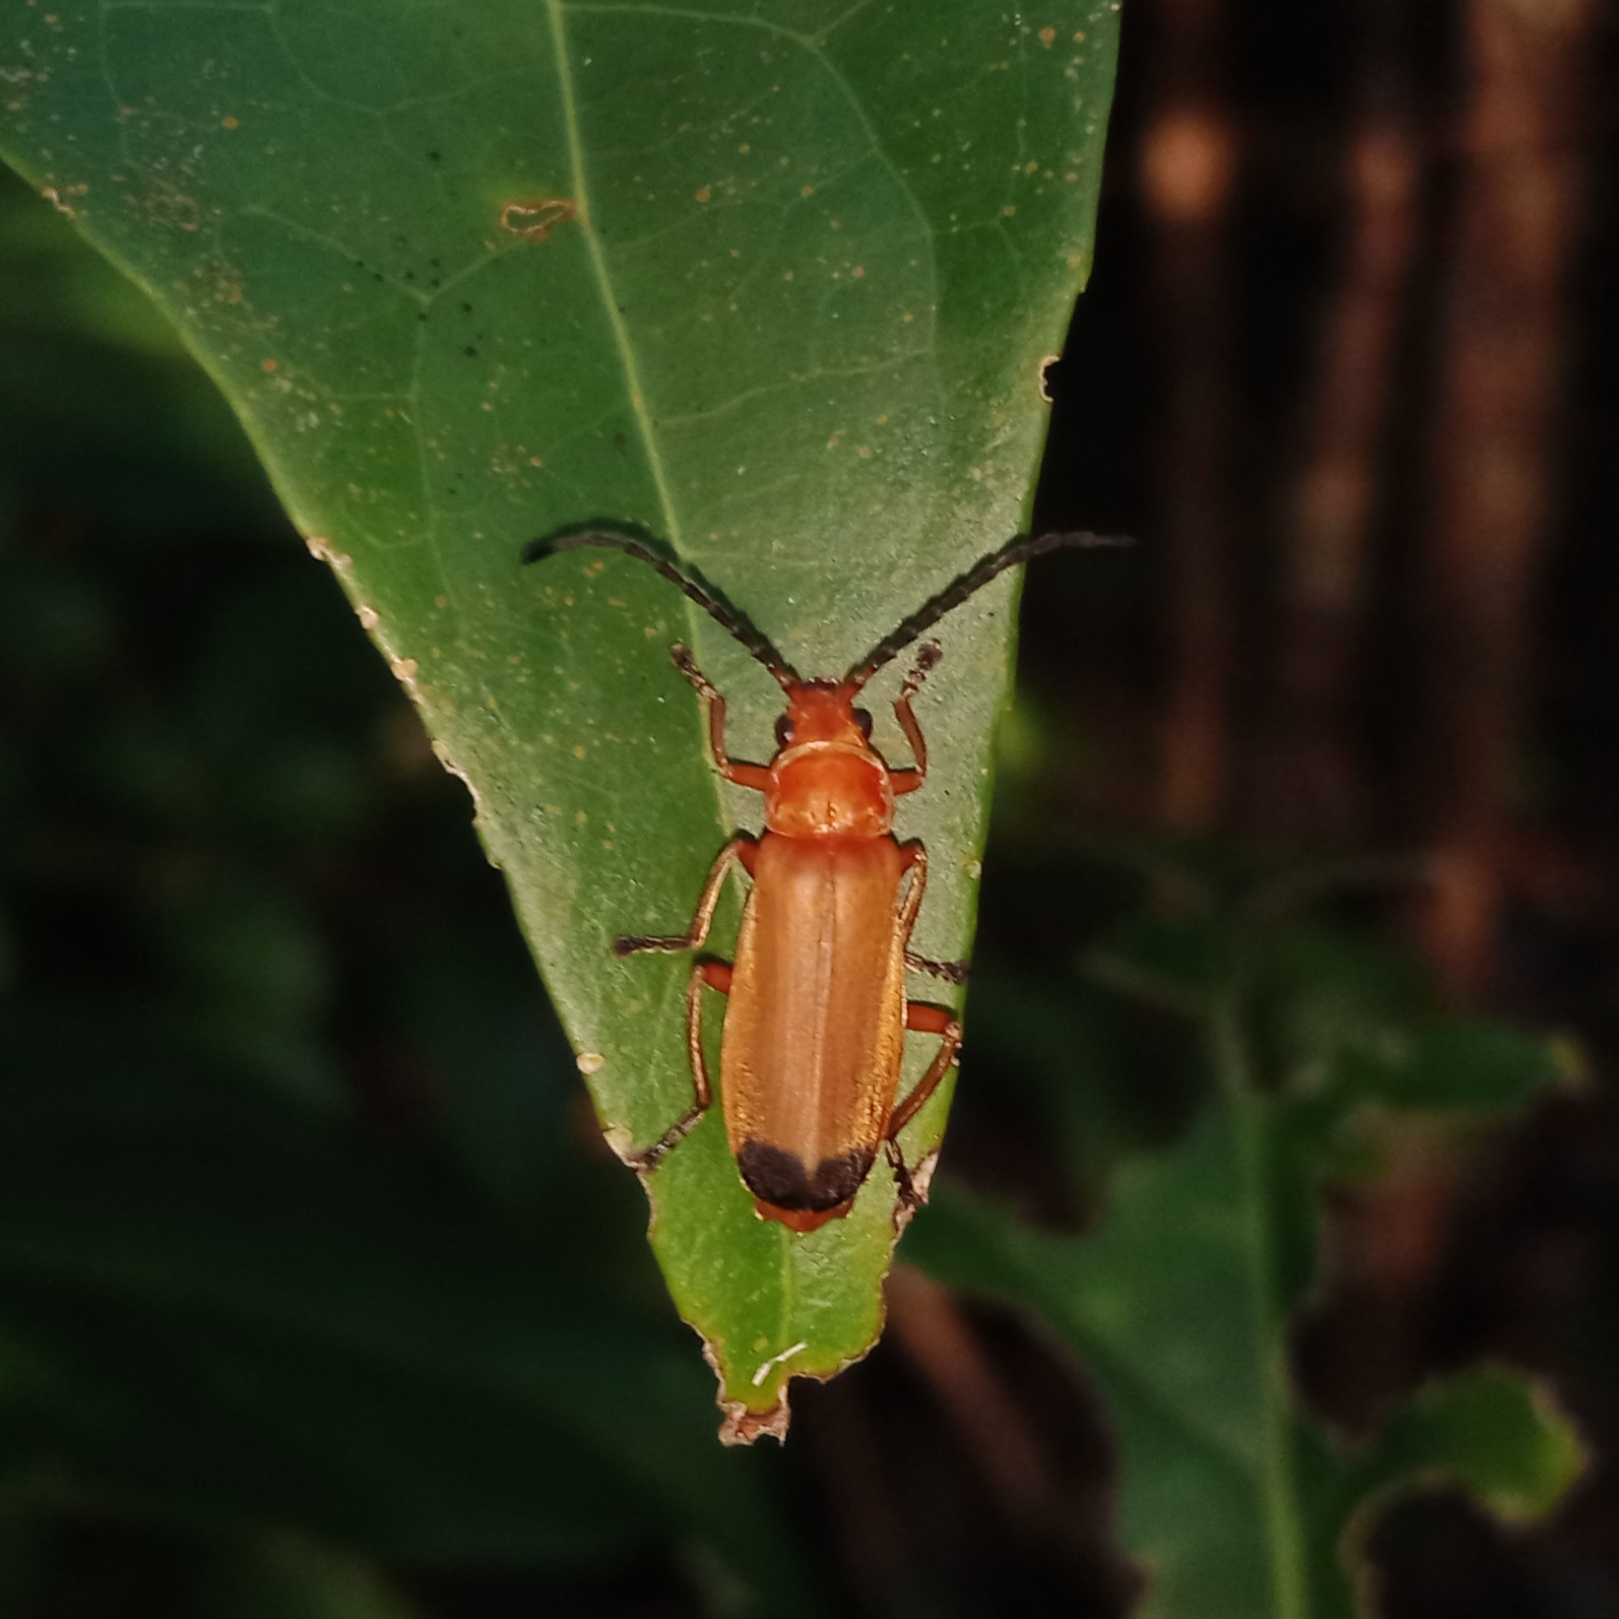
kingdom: Animalia
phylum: Arthropoda
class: Insecta
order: Coleoptera
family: Cantharidae
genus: Cordylocera
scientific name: Cordylocera
